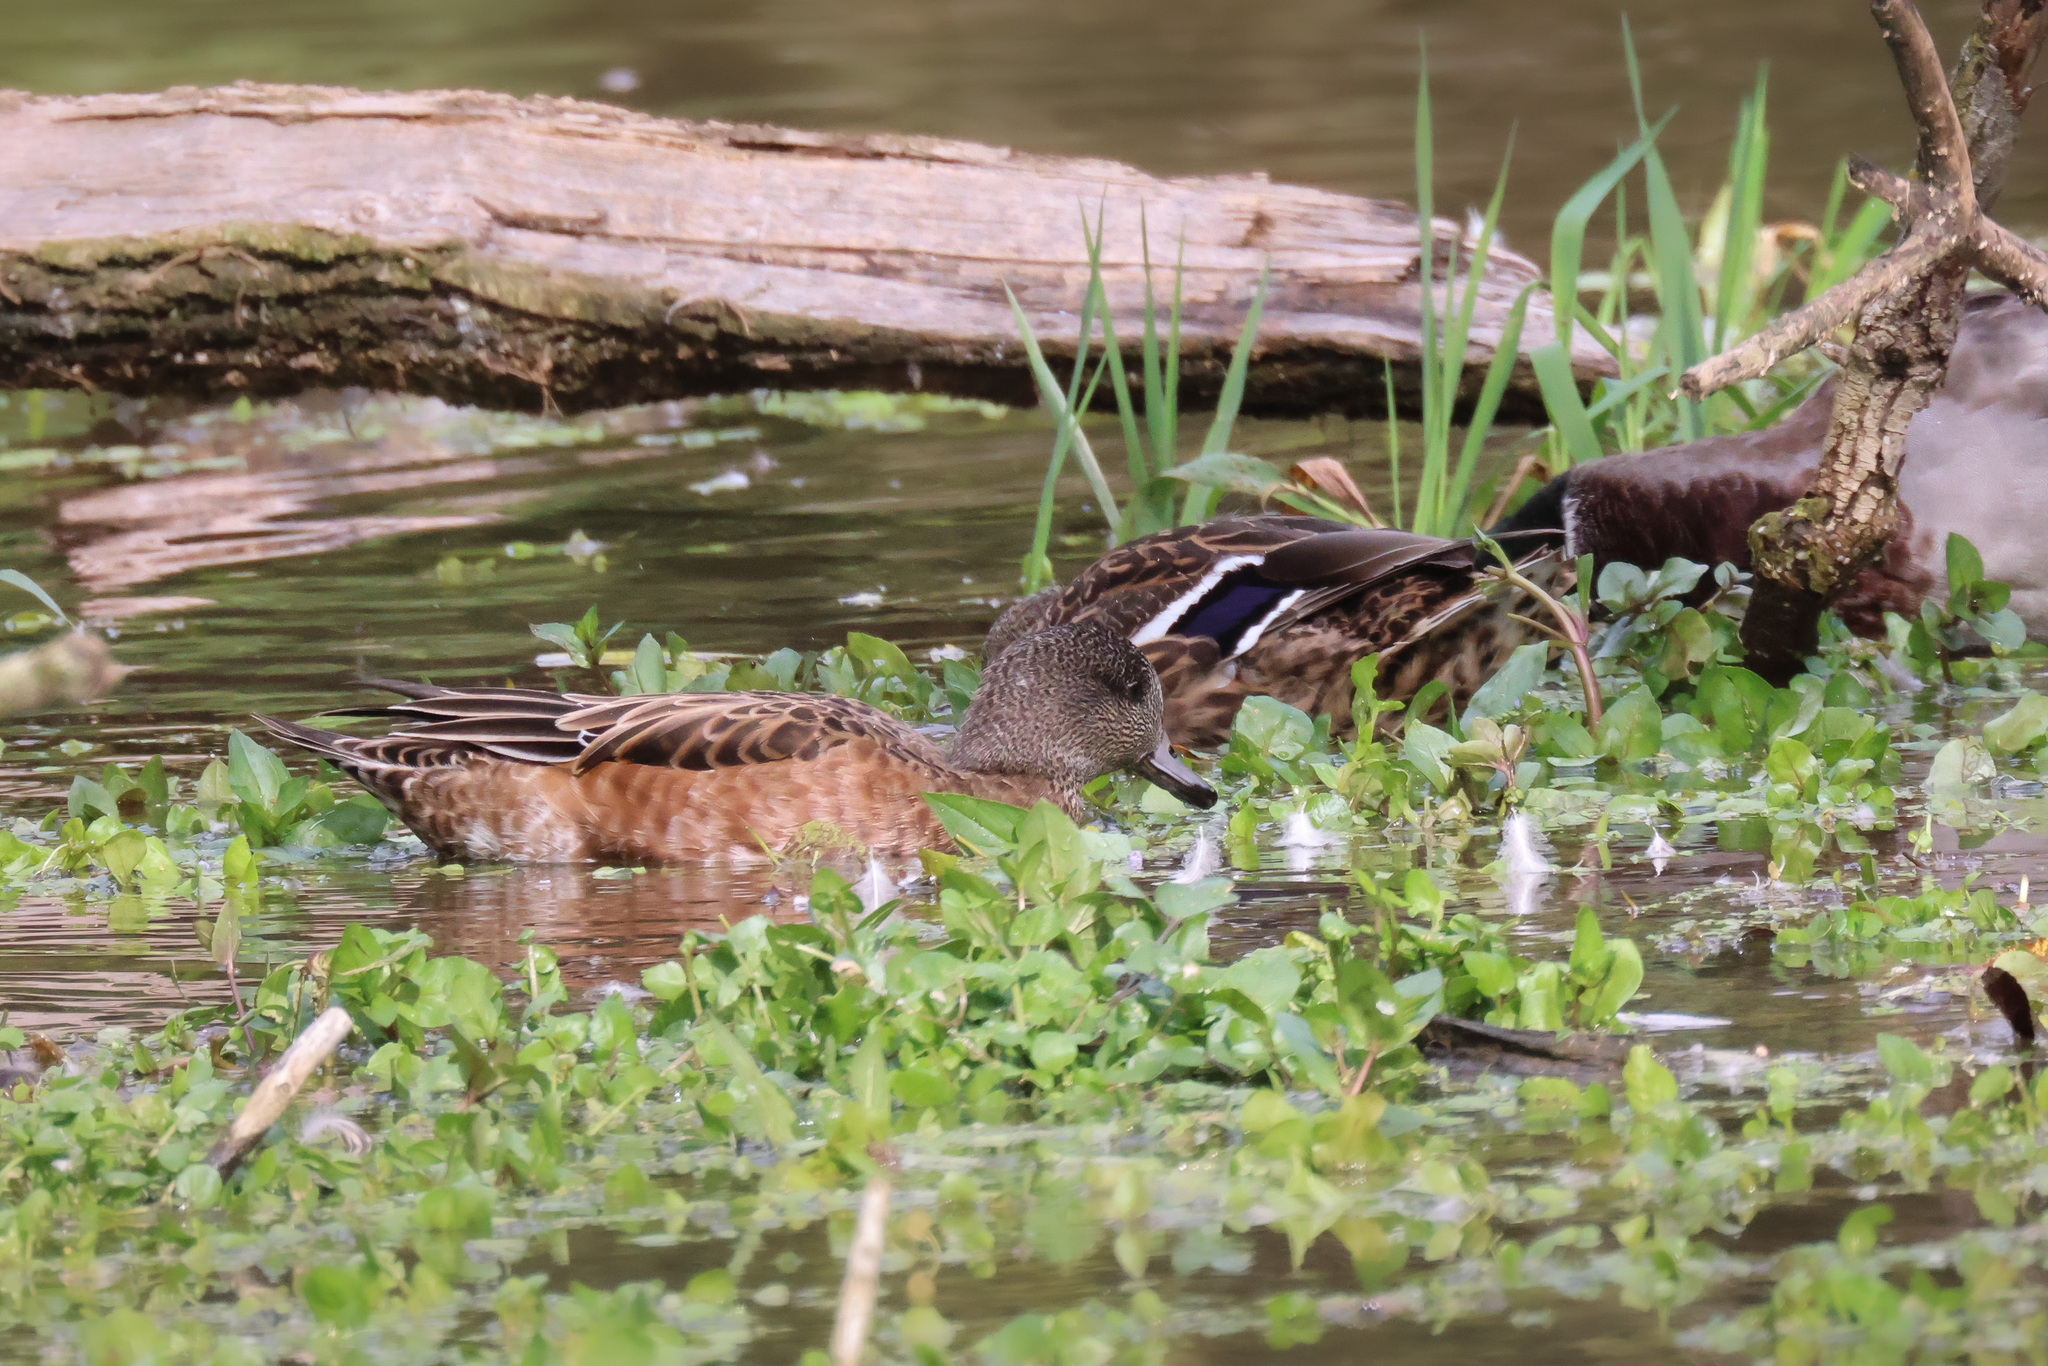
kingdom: Animalia
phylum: Chordata
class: Aves
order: Anseriformes
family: Anatidae
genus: Mareca
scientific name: Mareca americana
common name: American wigeon
